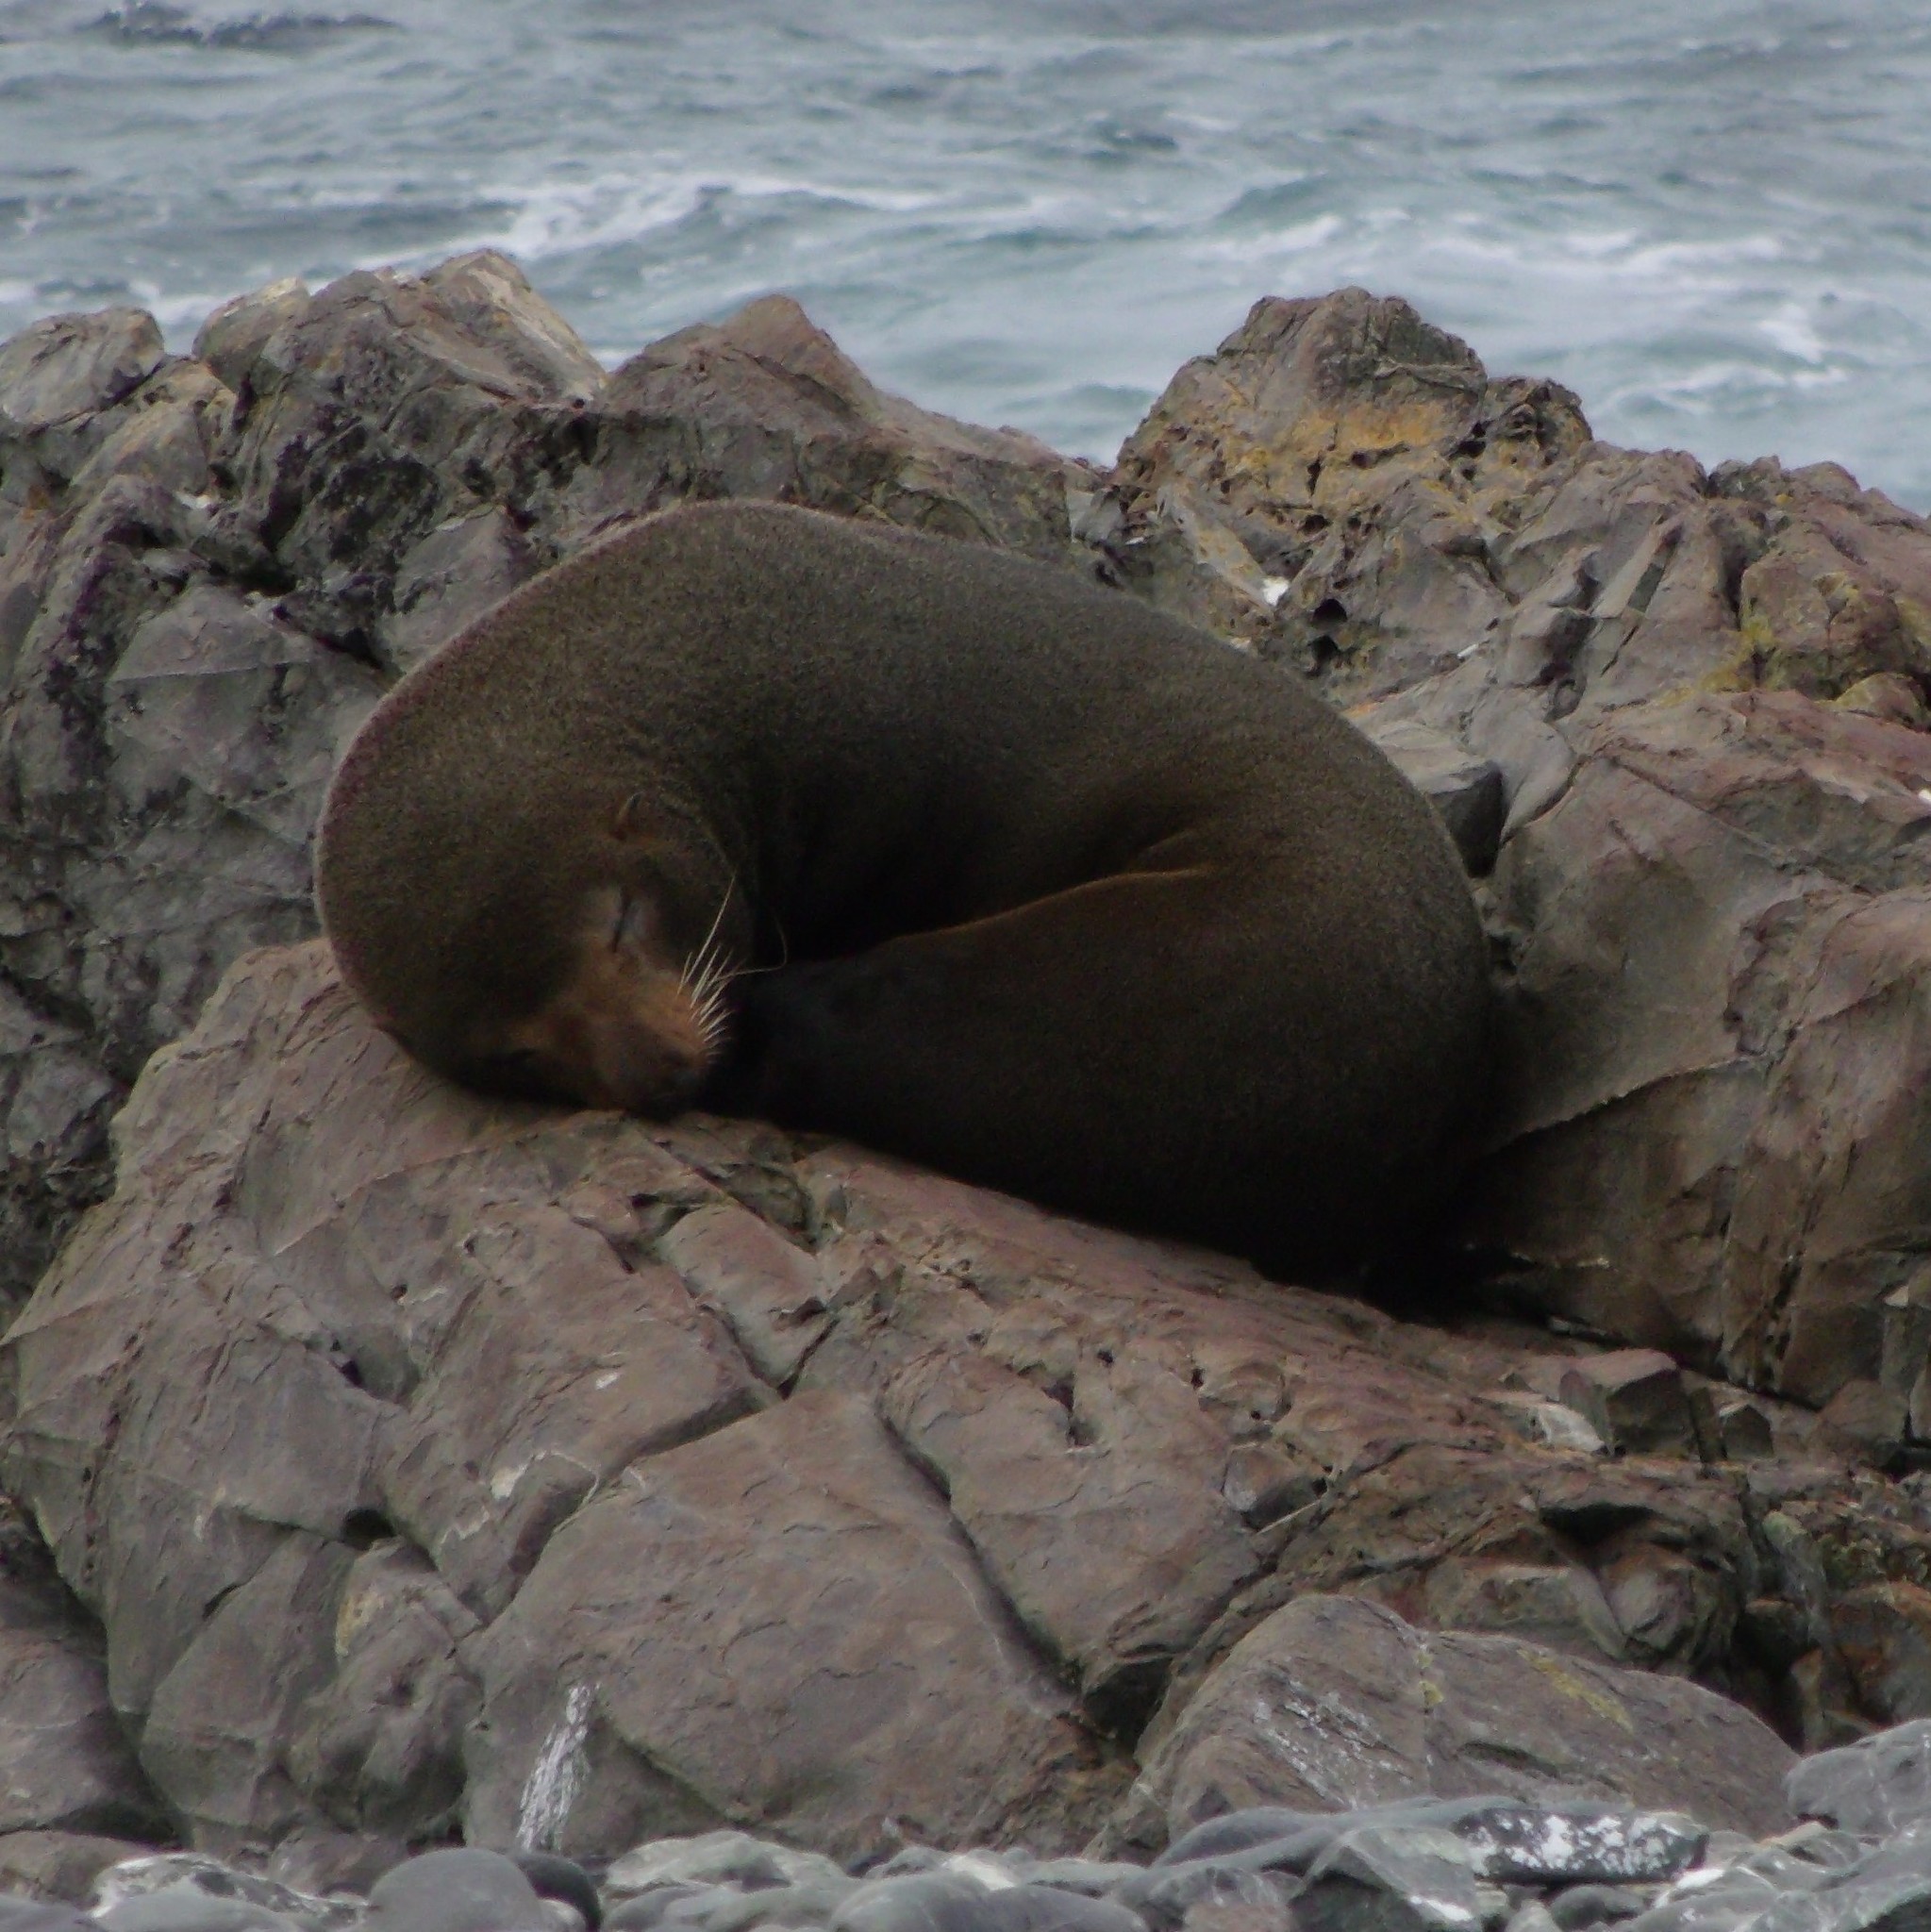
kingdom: Animalia
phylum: Chordata
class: Mammalia
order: Carnivora
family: Otariidae
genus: Arctocephalus
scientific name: Arctocephalus forsteri
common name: New zealand fur seal
